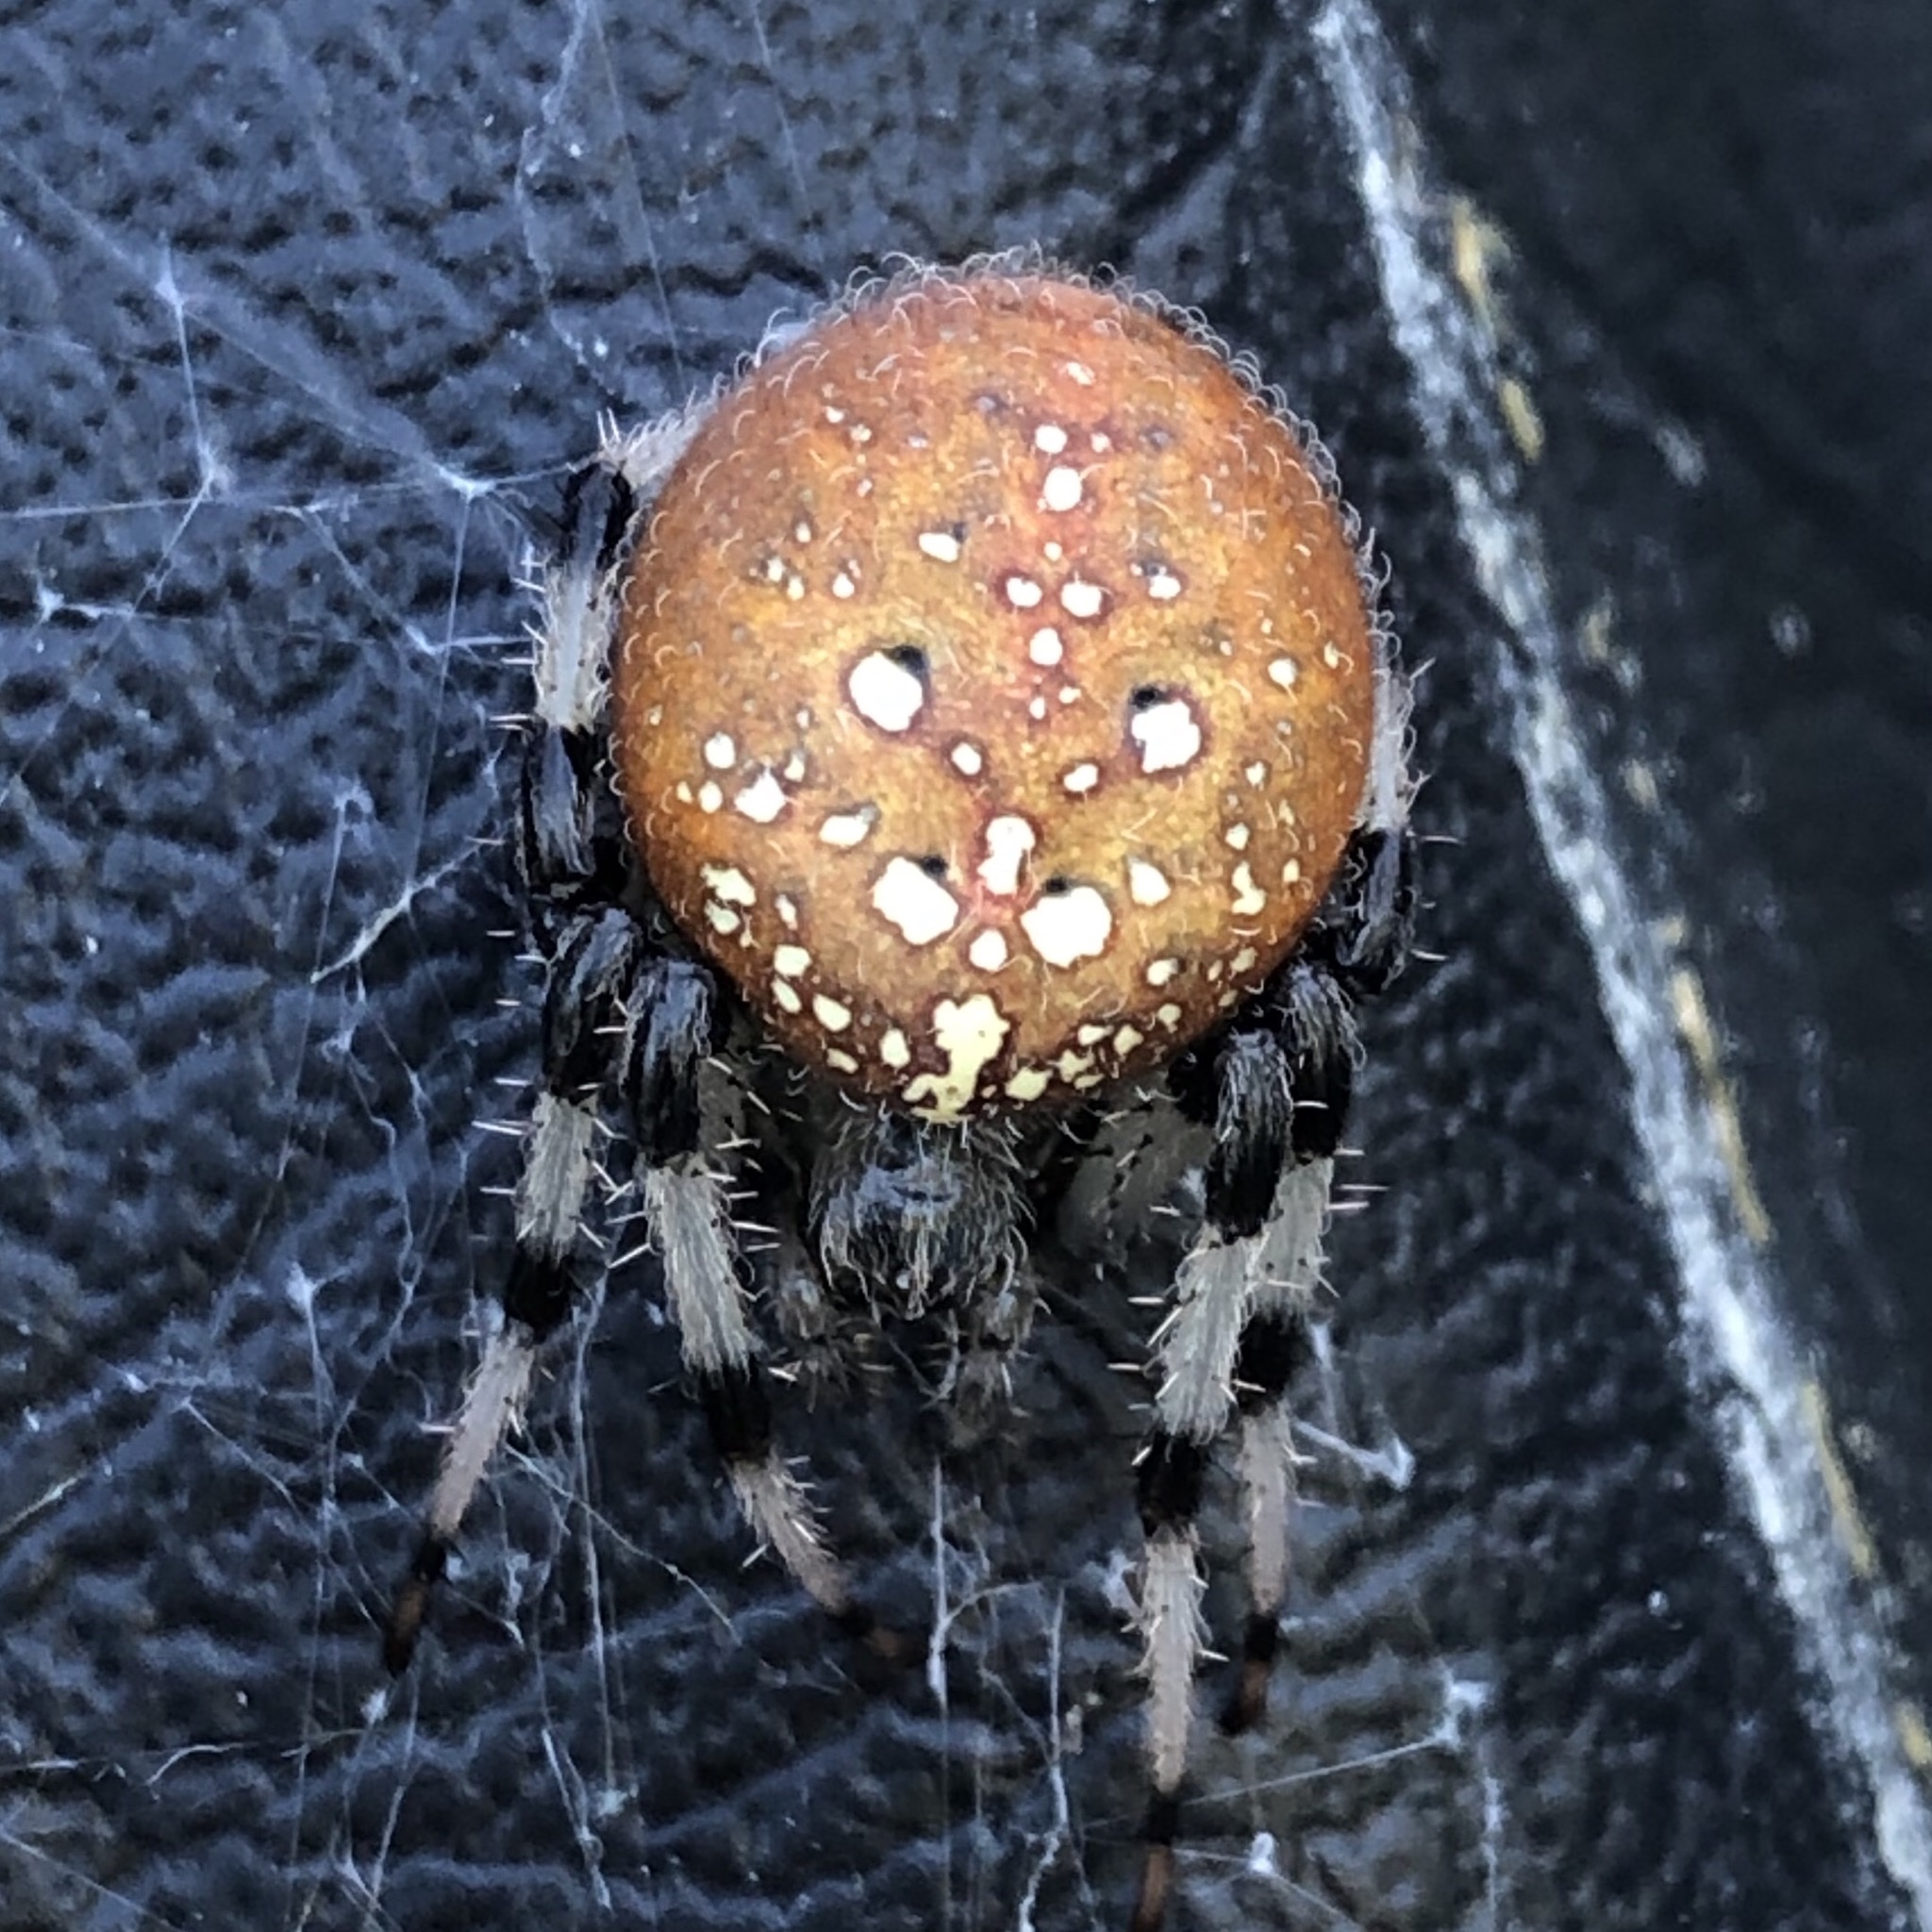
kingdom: Animalia
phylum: Arthropoda
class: Arachnida
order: Araneae
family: Araneidae
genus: Araneus
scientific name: Araneus trifolium
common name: Shamrock orbweaver
